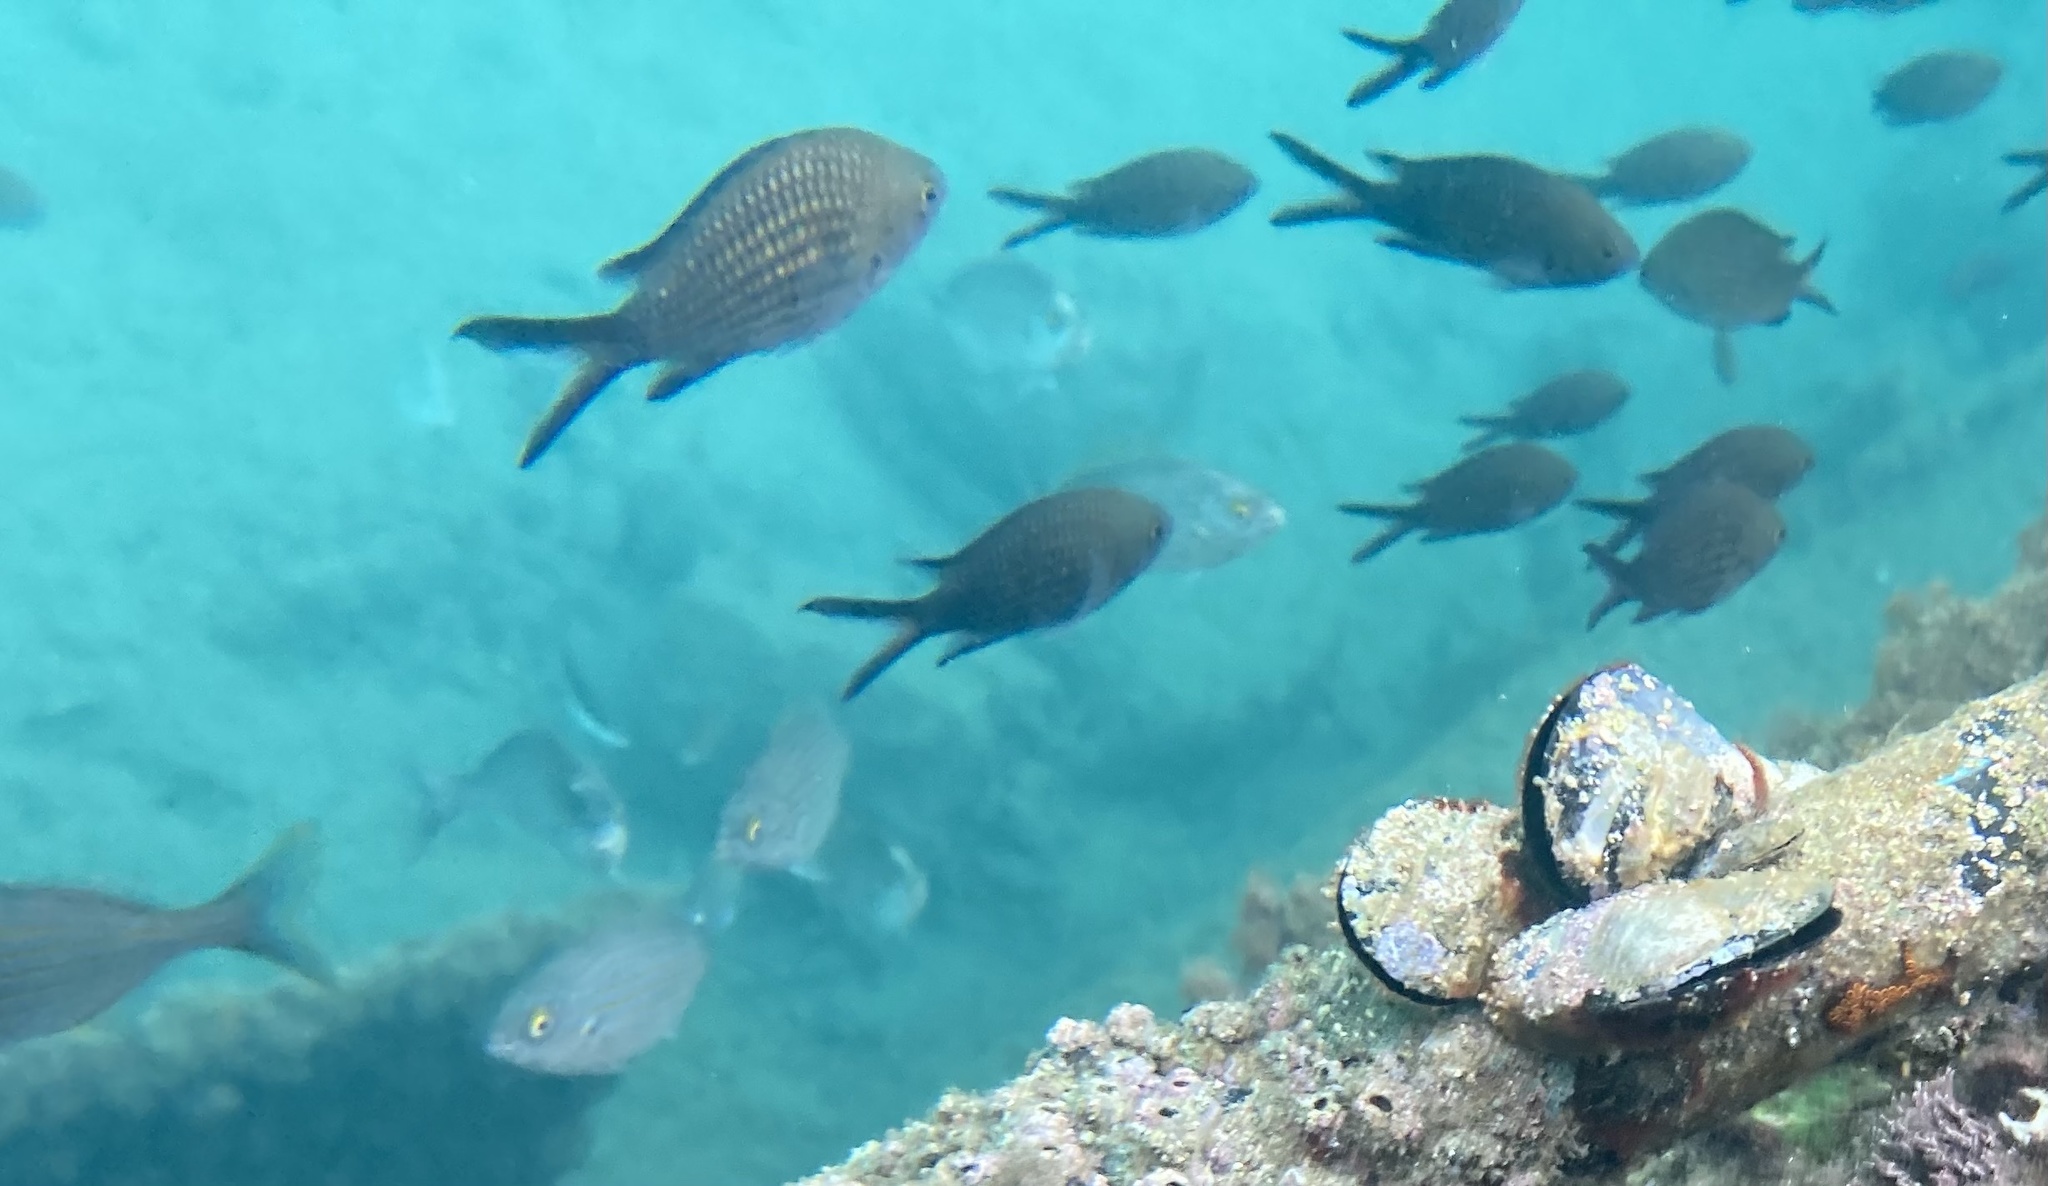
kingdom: Animalia
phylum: Chordata
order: Perciformes
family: Pomacentridae
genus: Chromis
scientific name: Chromis chromis
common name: Damselfish
